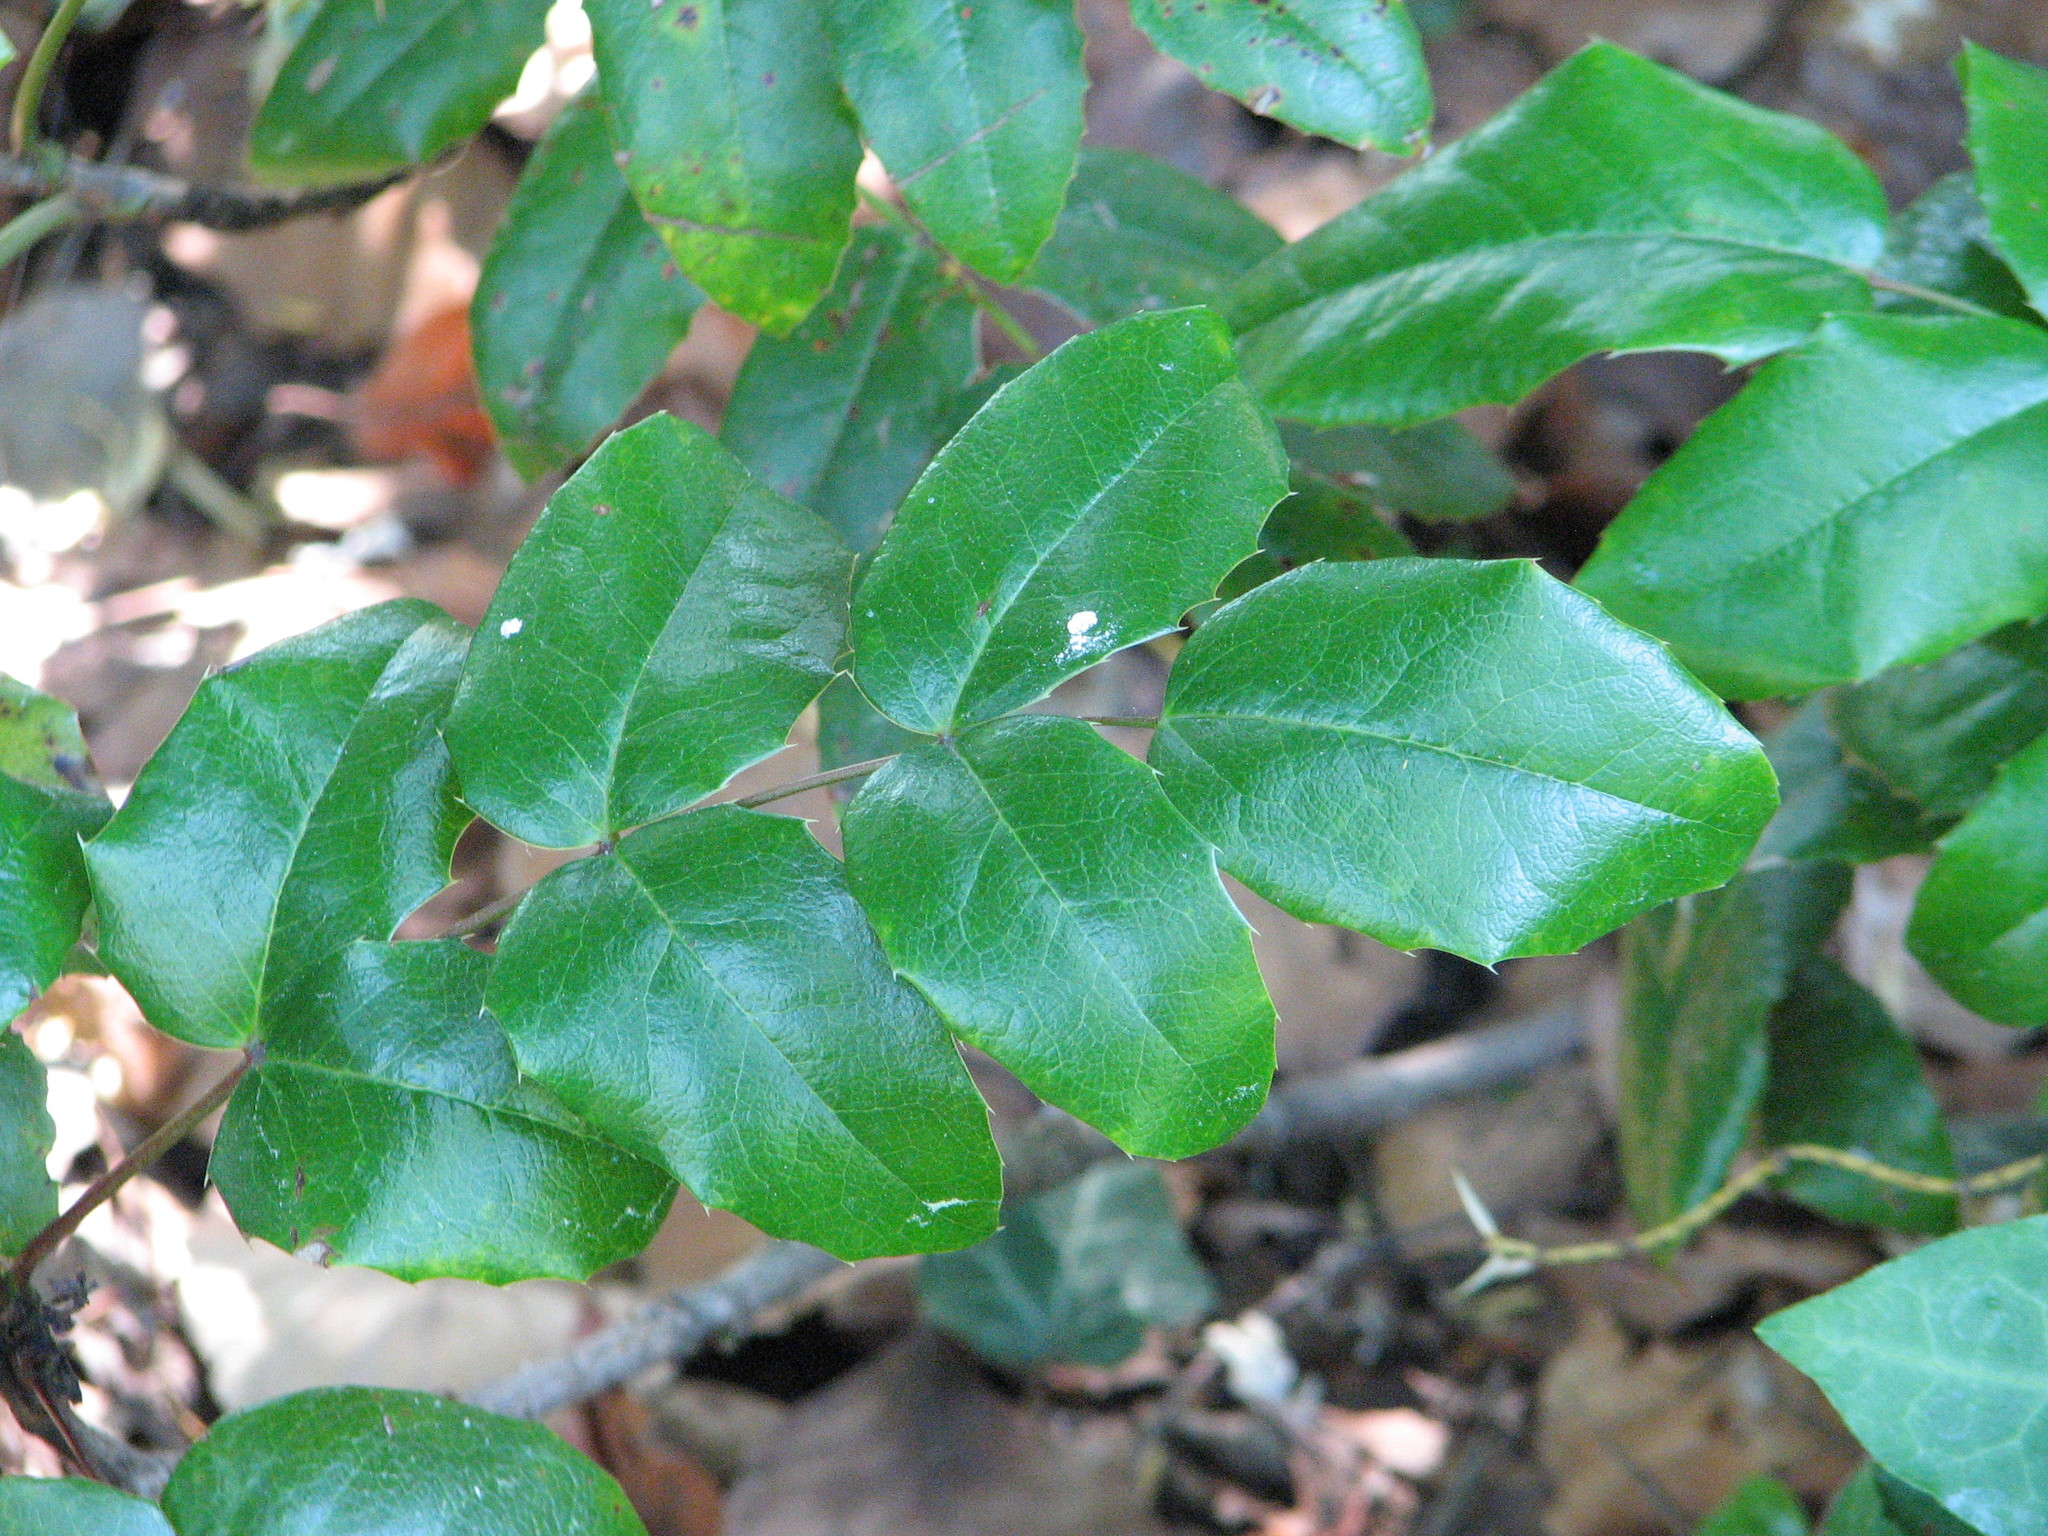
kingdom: Plantae
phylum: Tracheophyta
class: Magnoliopsida
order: Ranunculales
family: Berberidaceae
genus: Mahonia
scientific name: Mahonia aquifolium
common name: Oregon-grape
